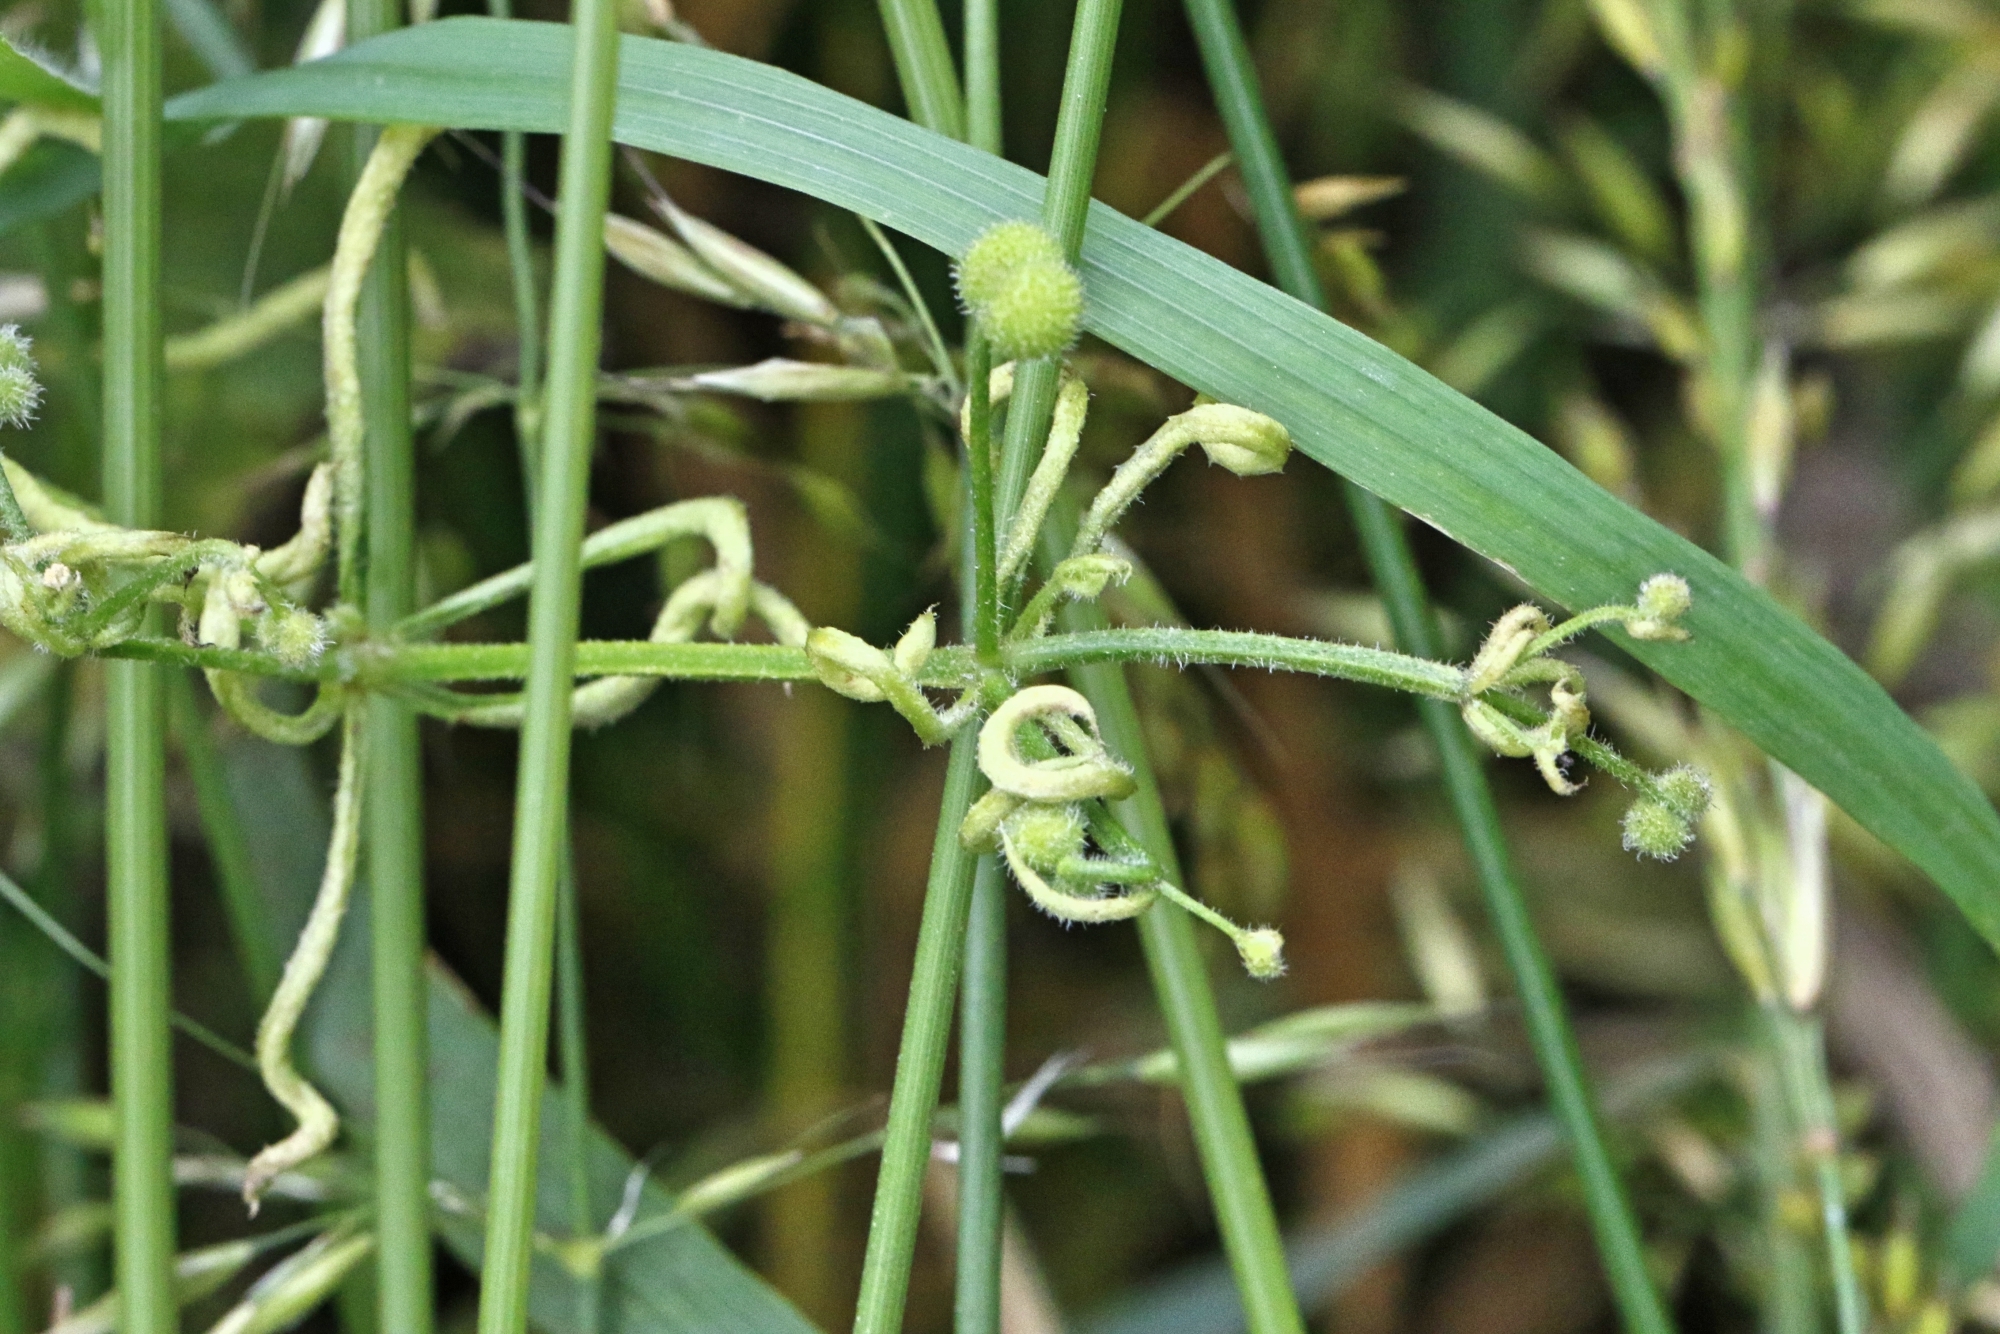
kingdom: Animalia
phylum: Arthropoda
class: Arachnida
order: Trombidiformes
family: Eriophyidae
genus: Cecidophyes
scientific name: Cecidophyes rouhollahi
